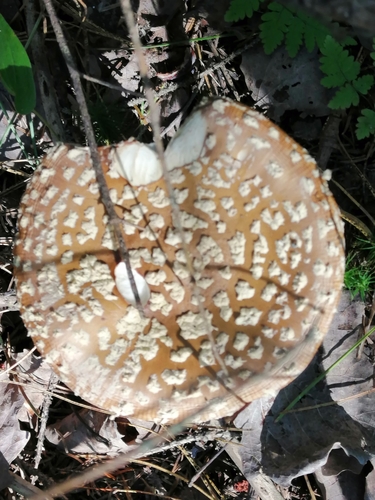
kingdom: Fungi
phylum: Basidiomycota
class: Agaricomycetes
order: Agaricales
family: Amanitaceae
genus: Amanita
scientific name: Amanita regalis
